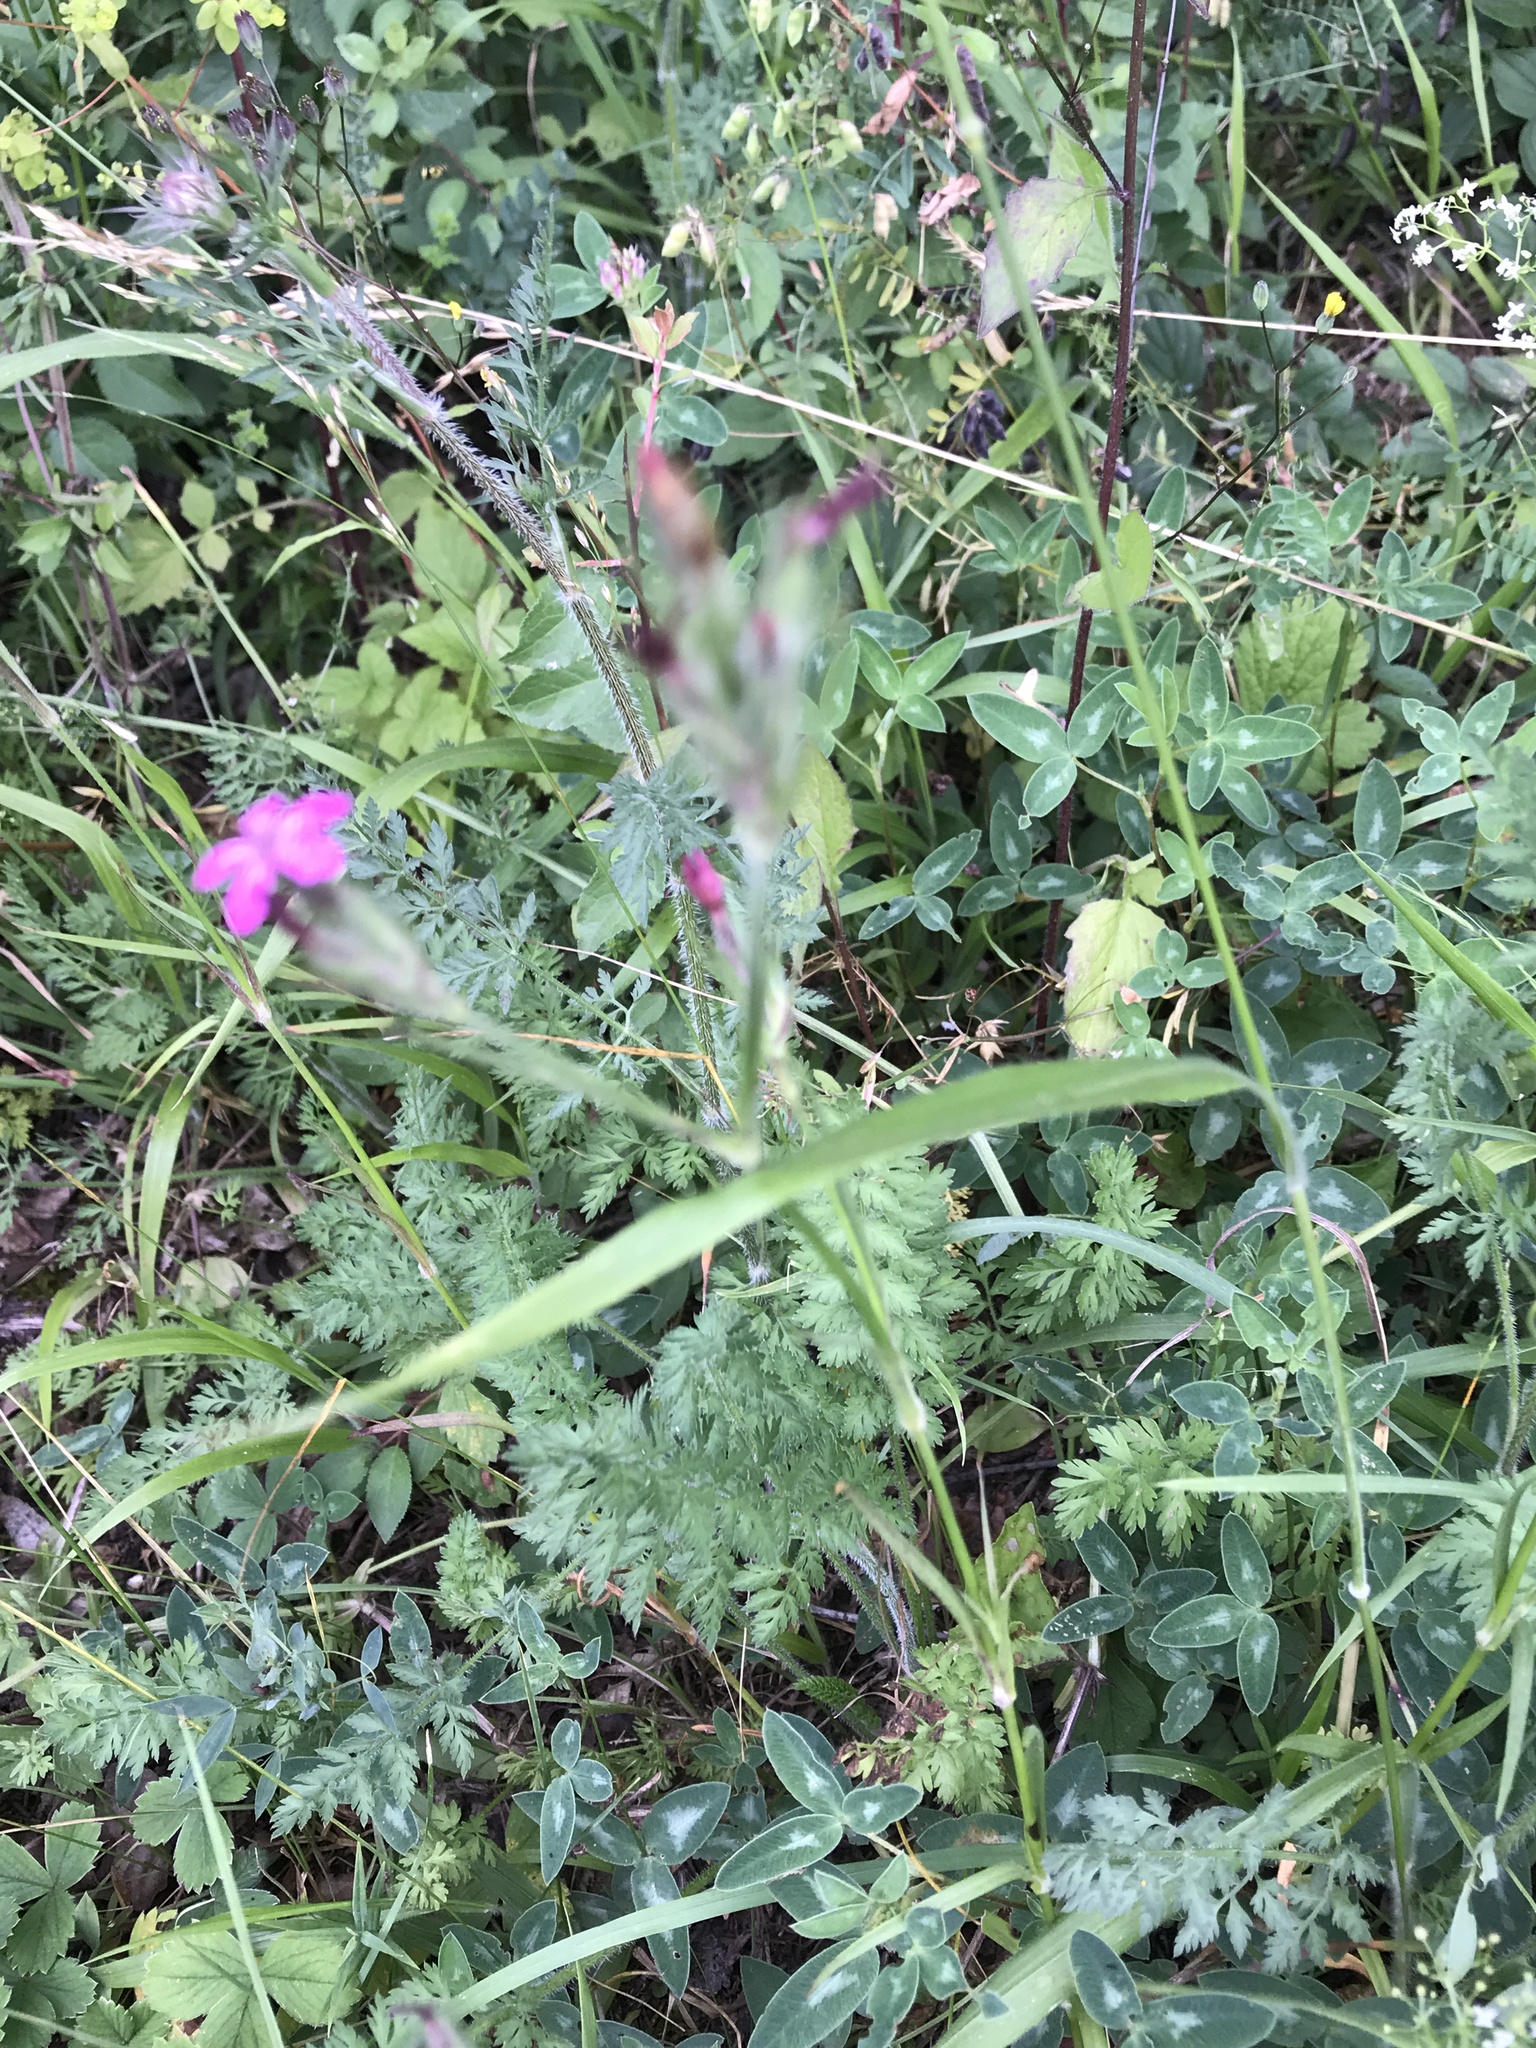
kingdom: Plantae
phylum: Tracheophyta
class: Magnoliopsida
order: Caryophyllales
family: Caryophyllaceae
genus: Dianthus
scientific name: Dianthus armeria
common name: Deptford pink
